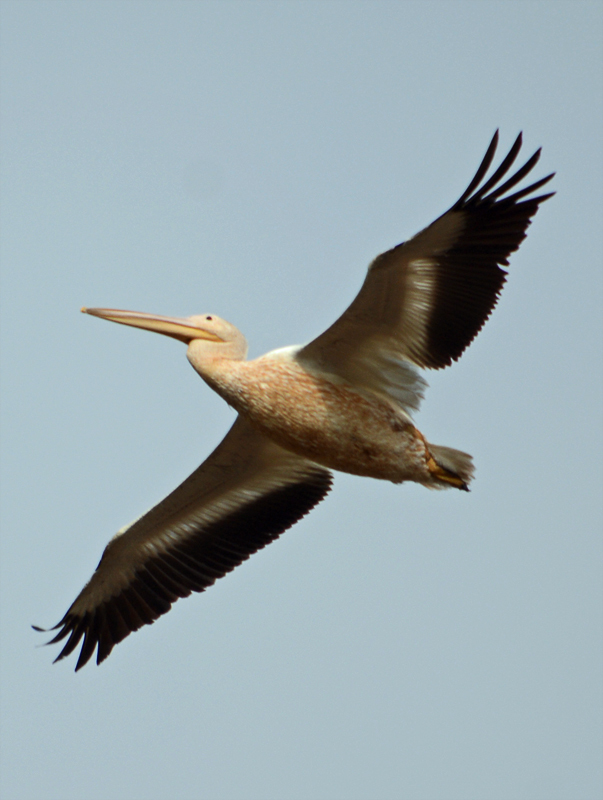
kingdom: Animalia
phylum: Chordata
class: Aves
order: Pelecaniformes
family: Pelecanidae
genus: Pelecanus
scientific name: Pelecanus erythrorhynchos
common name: American white pelican
